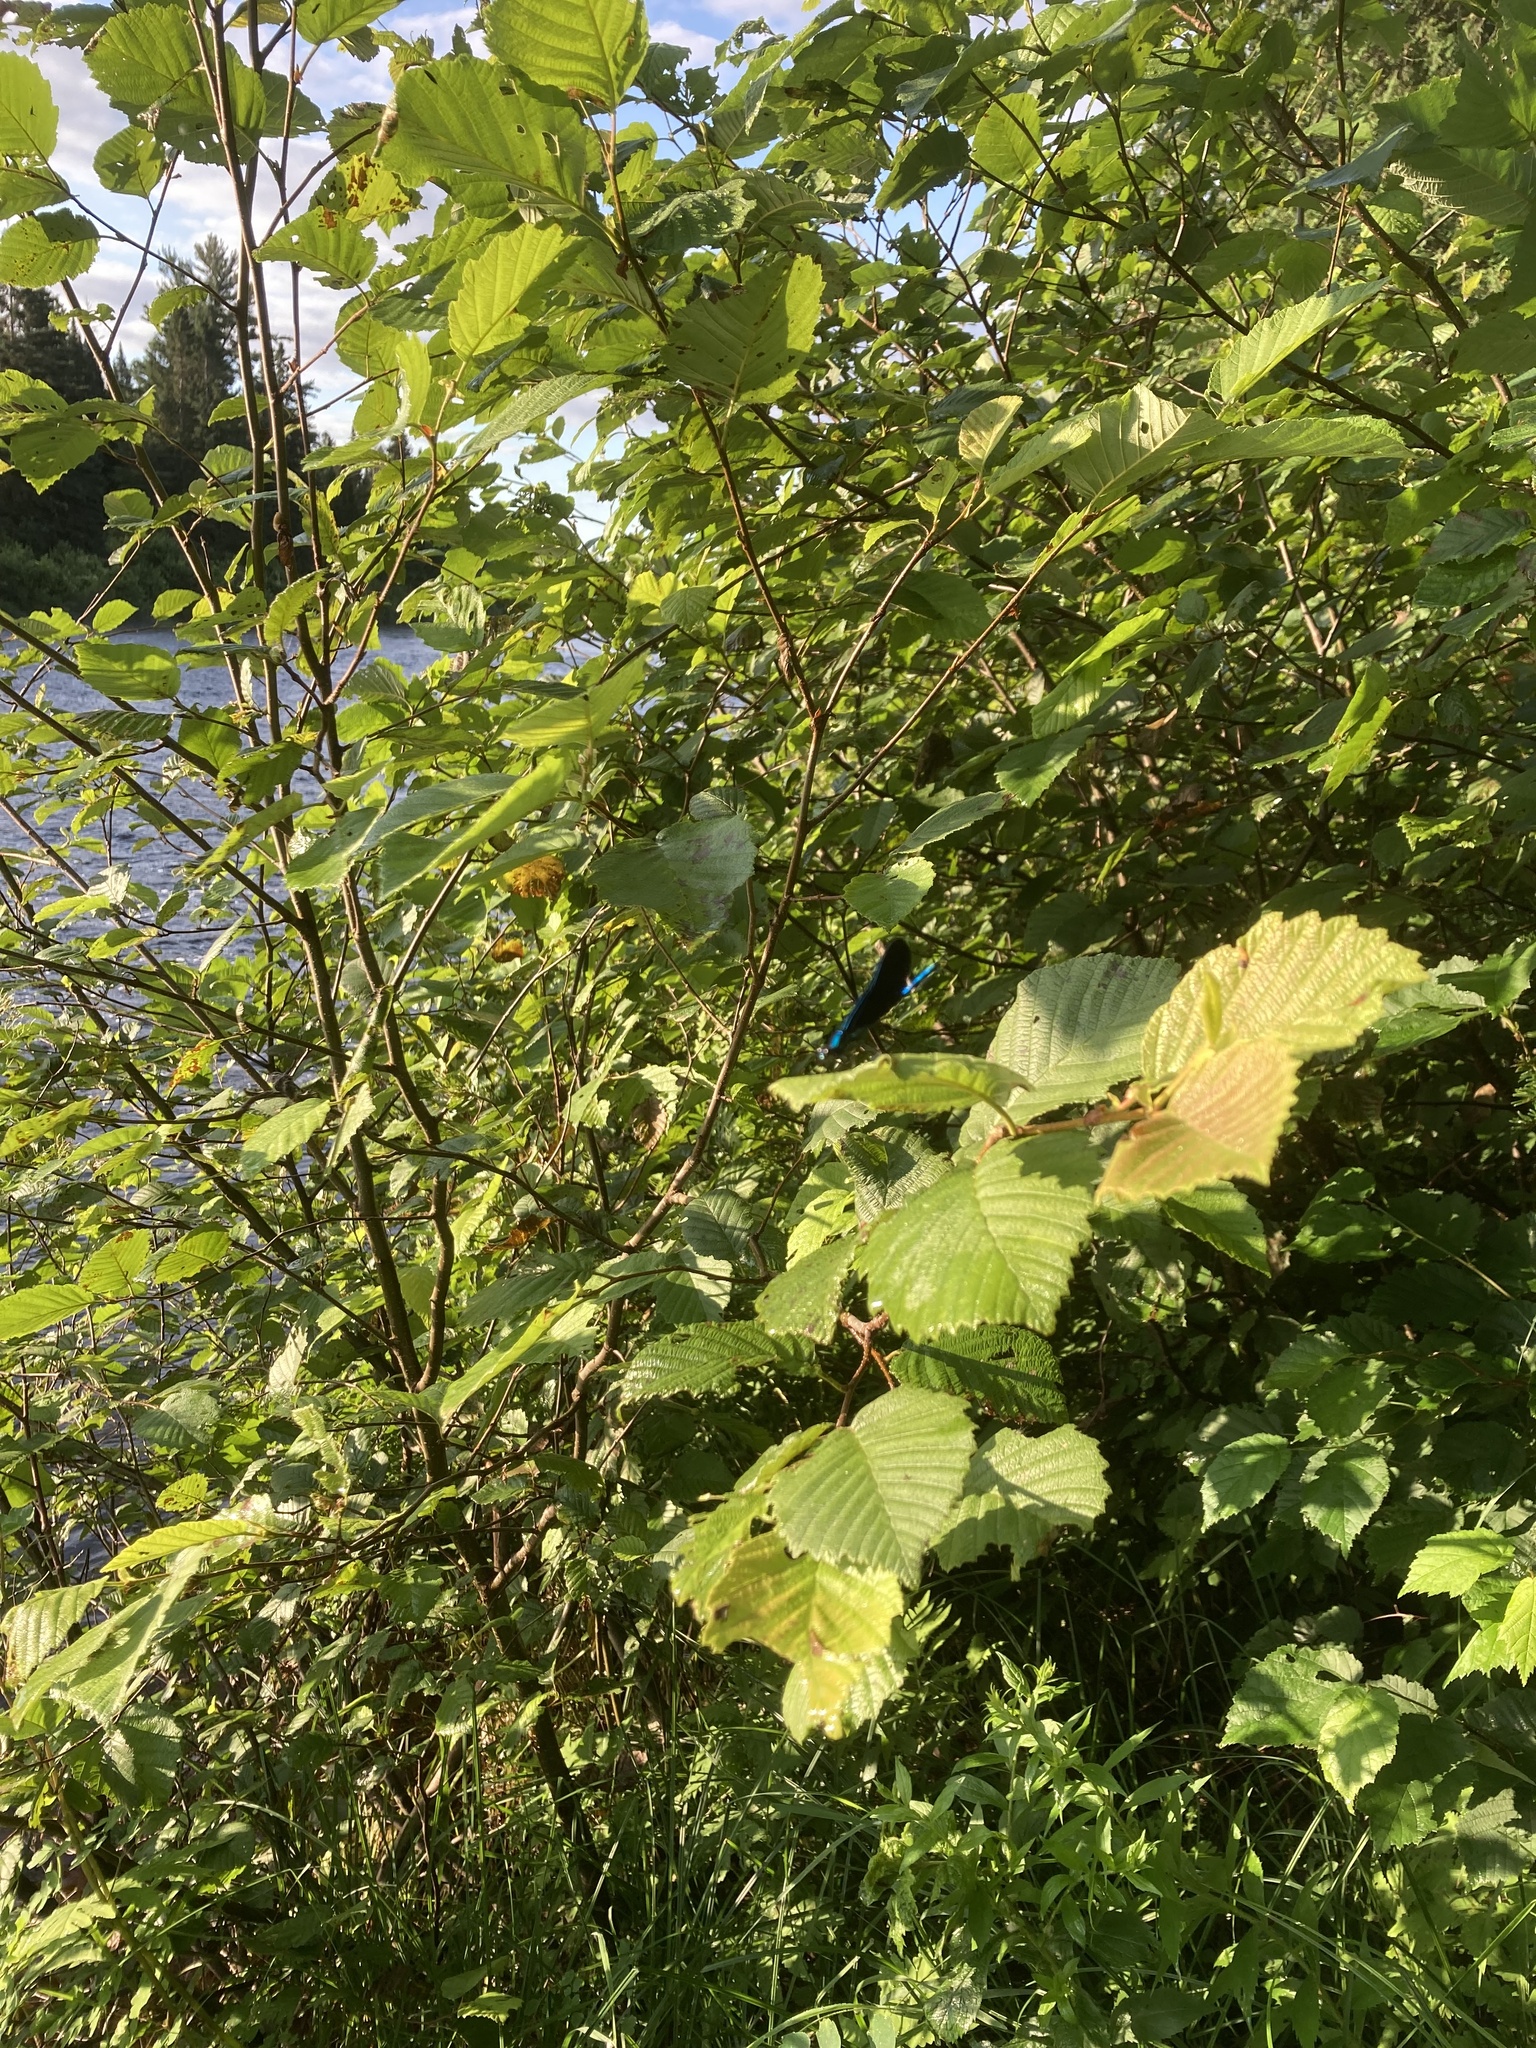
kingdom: Animalia
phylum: Arthropoda
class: Insecta
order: Odonata
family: Calopterygidae
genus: Calopteryx
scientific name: Calopteryx maculata
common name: Ebony jewelwing
